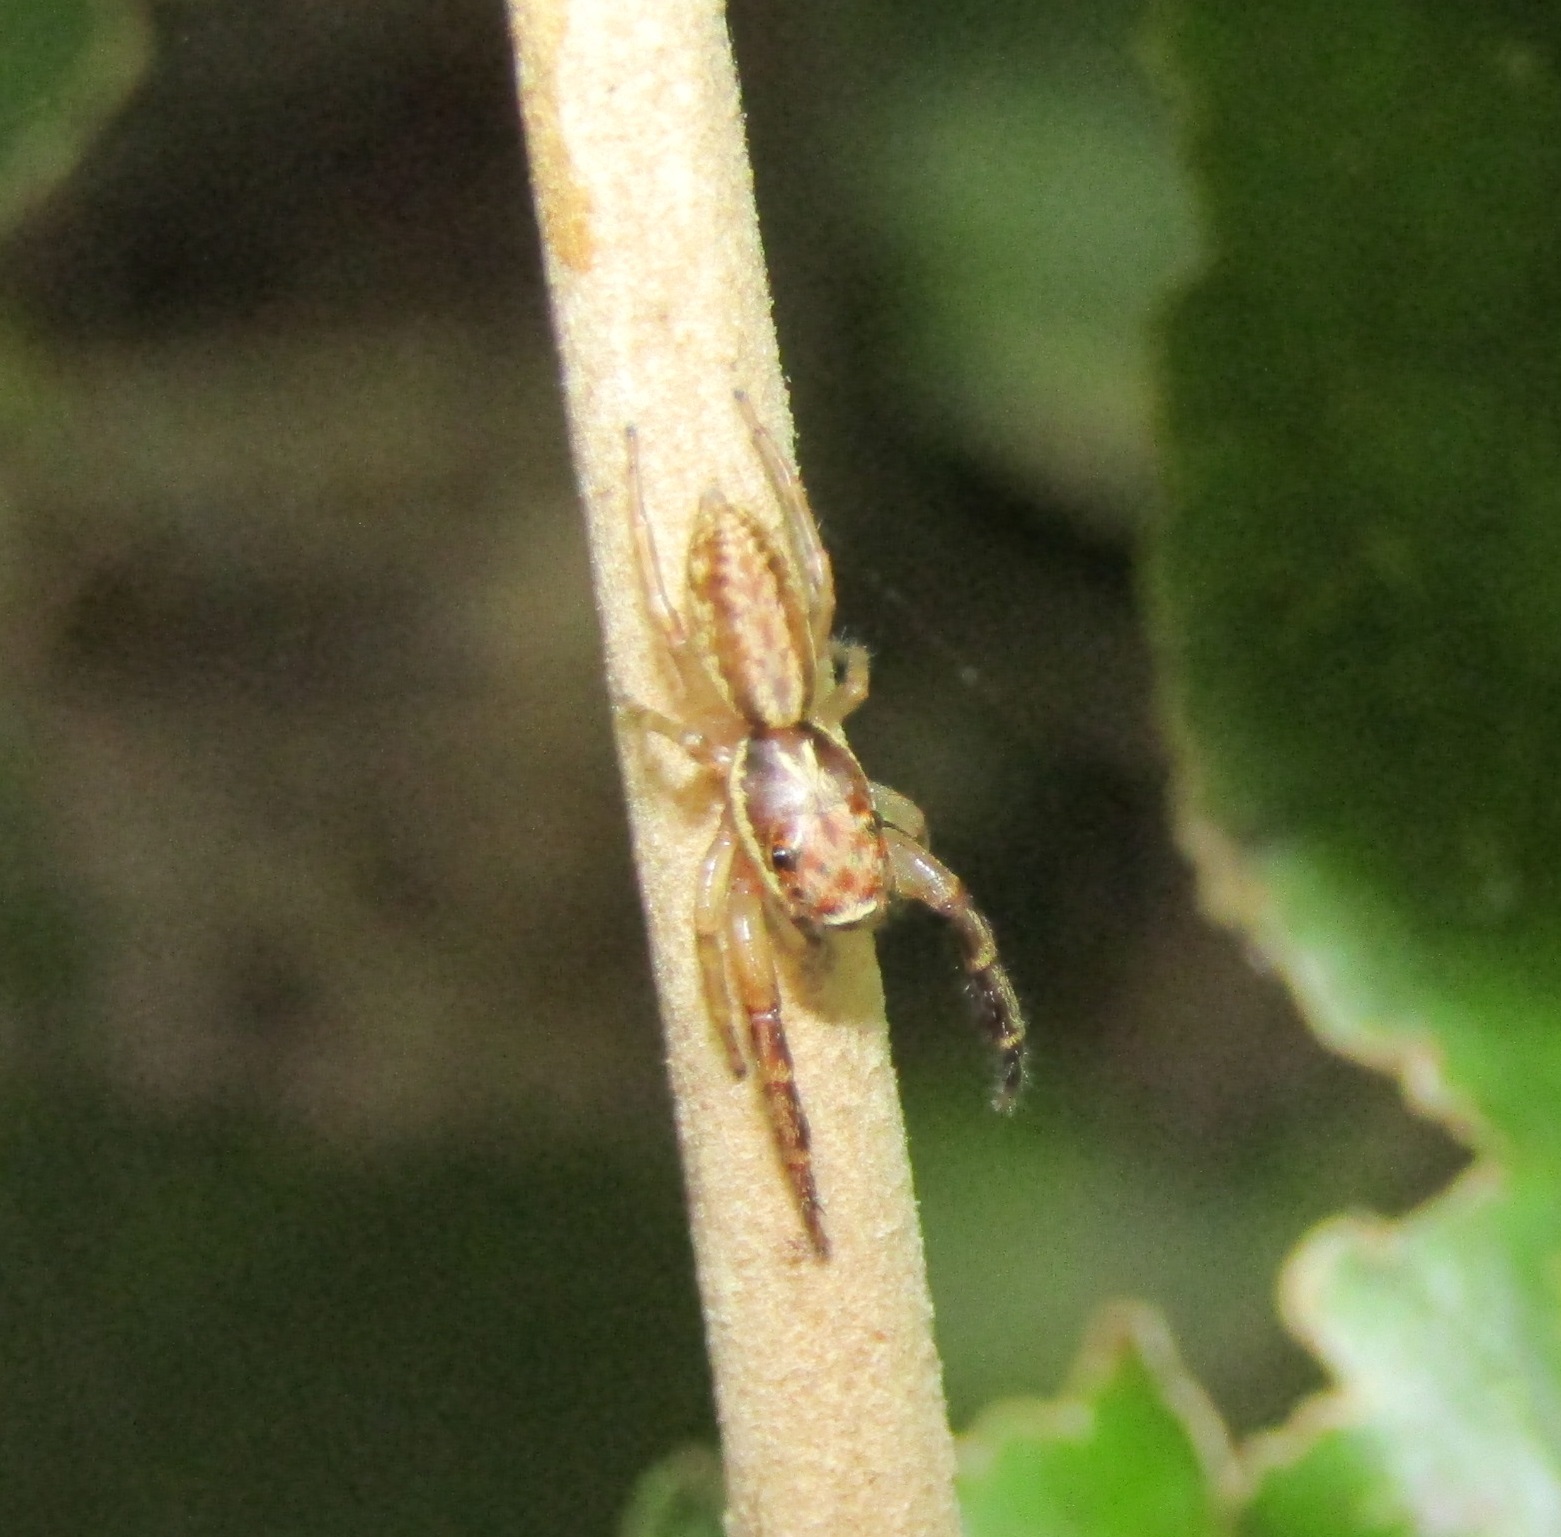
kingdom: Animalia
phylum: Arthropoda
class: Arachnida
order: Araneae
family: Salticidae
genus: Trite
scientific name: Trite mustilina
